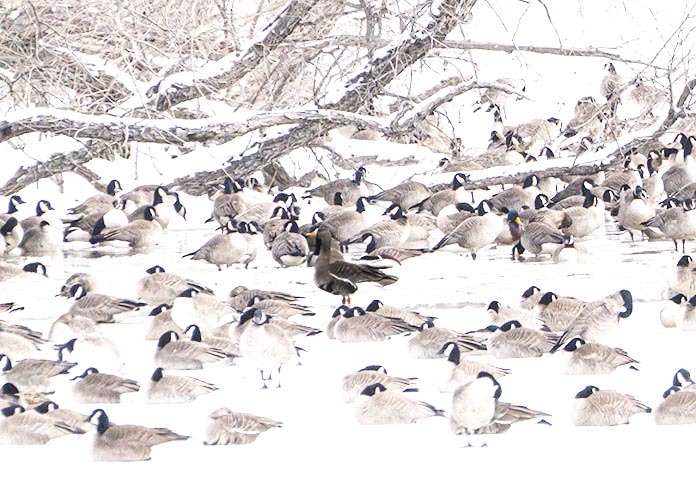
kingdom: Animalia
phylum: Chordata
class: Aves
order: Anseriformes
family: Anatidae
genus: Anser
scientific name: Anser albifrons
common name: Greater white-fronted goose
